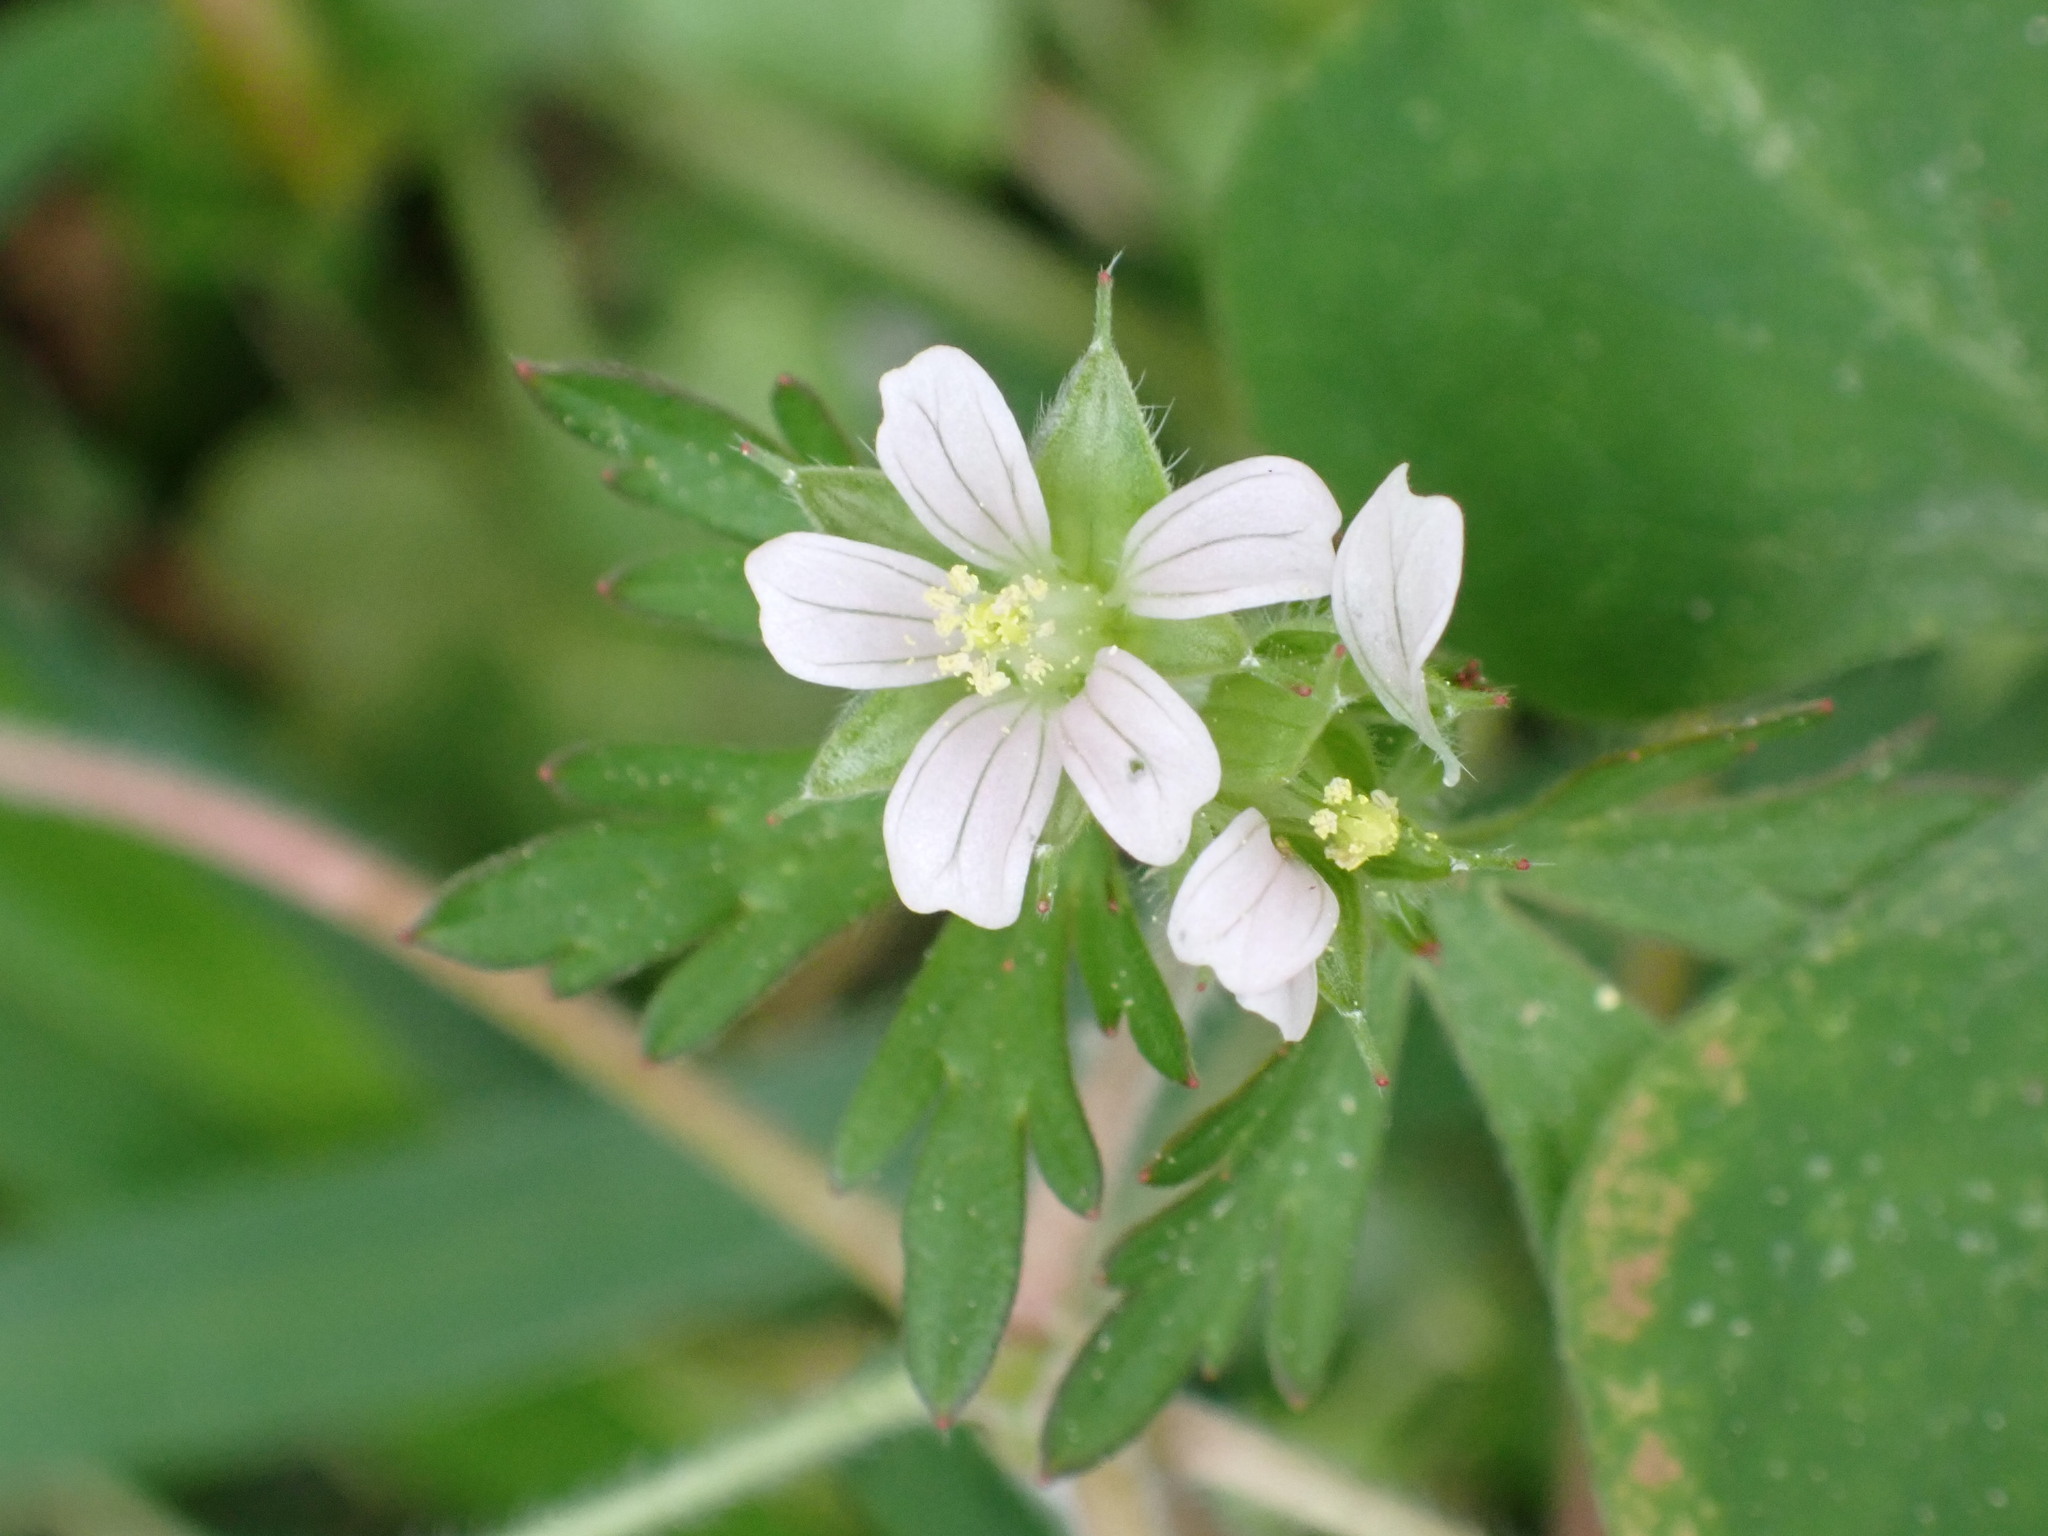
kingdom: Plantae
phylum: Tracheophyta
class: Magnoliopsida
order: Geraniales
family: Geraniaceae
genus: Geranium
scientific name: Geranium carolinianum
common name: Carolina crane's-bill
